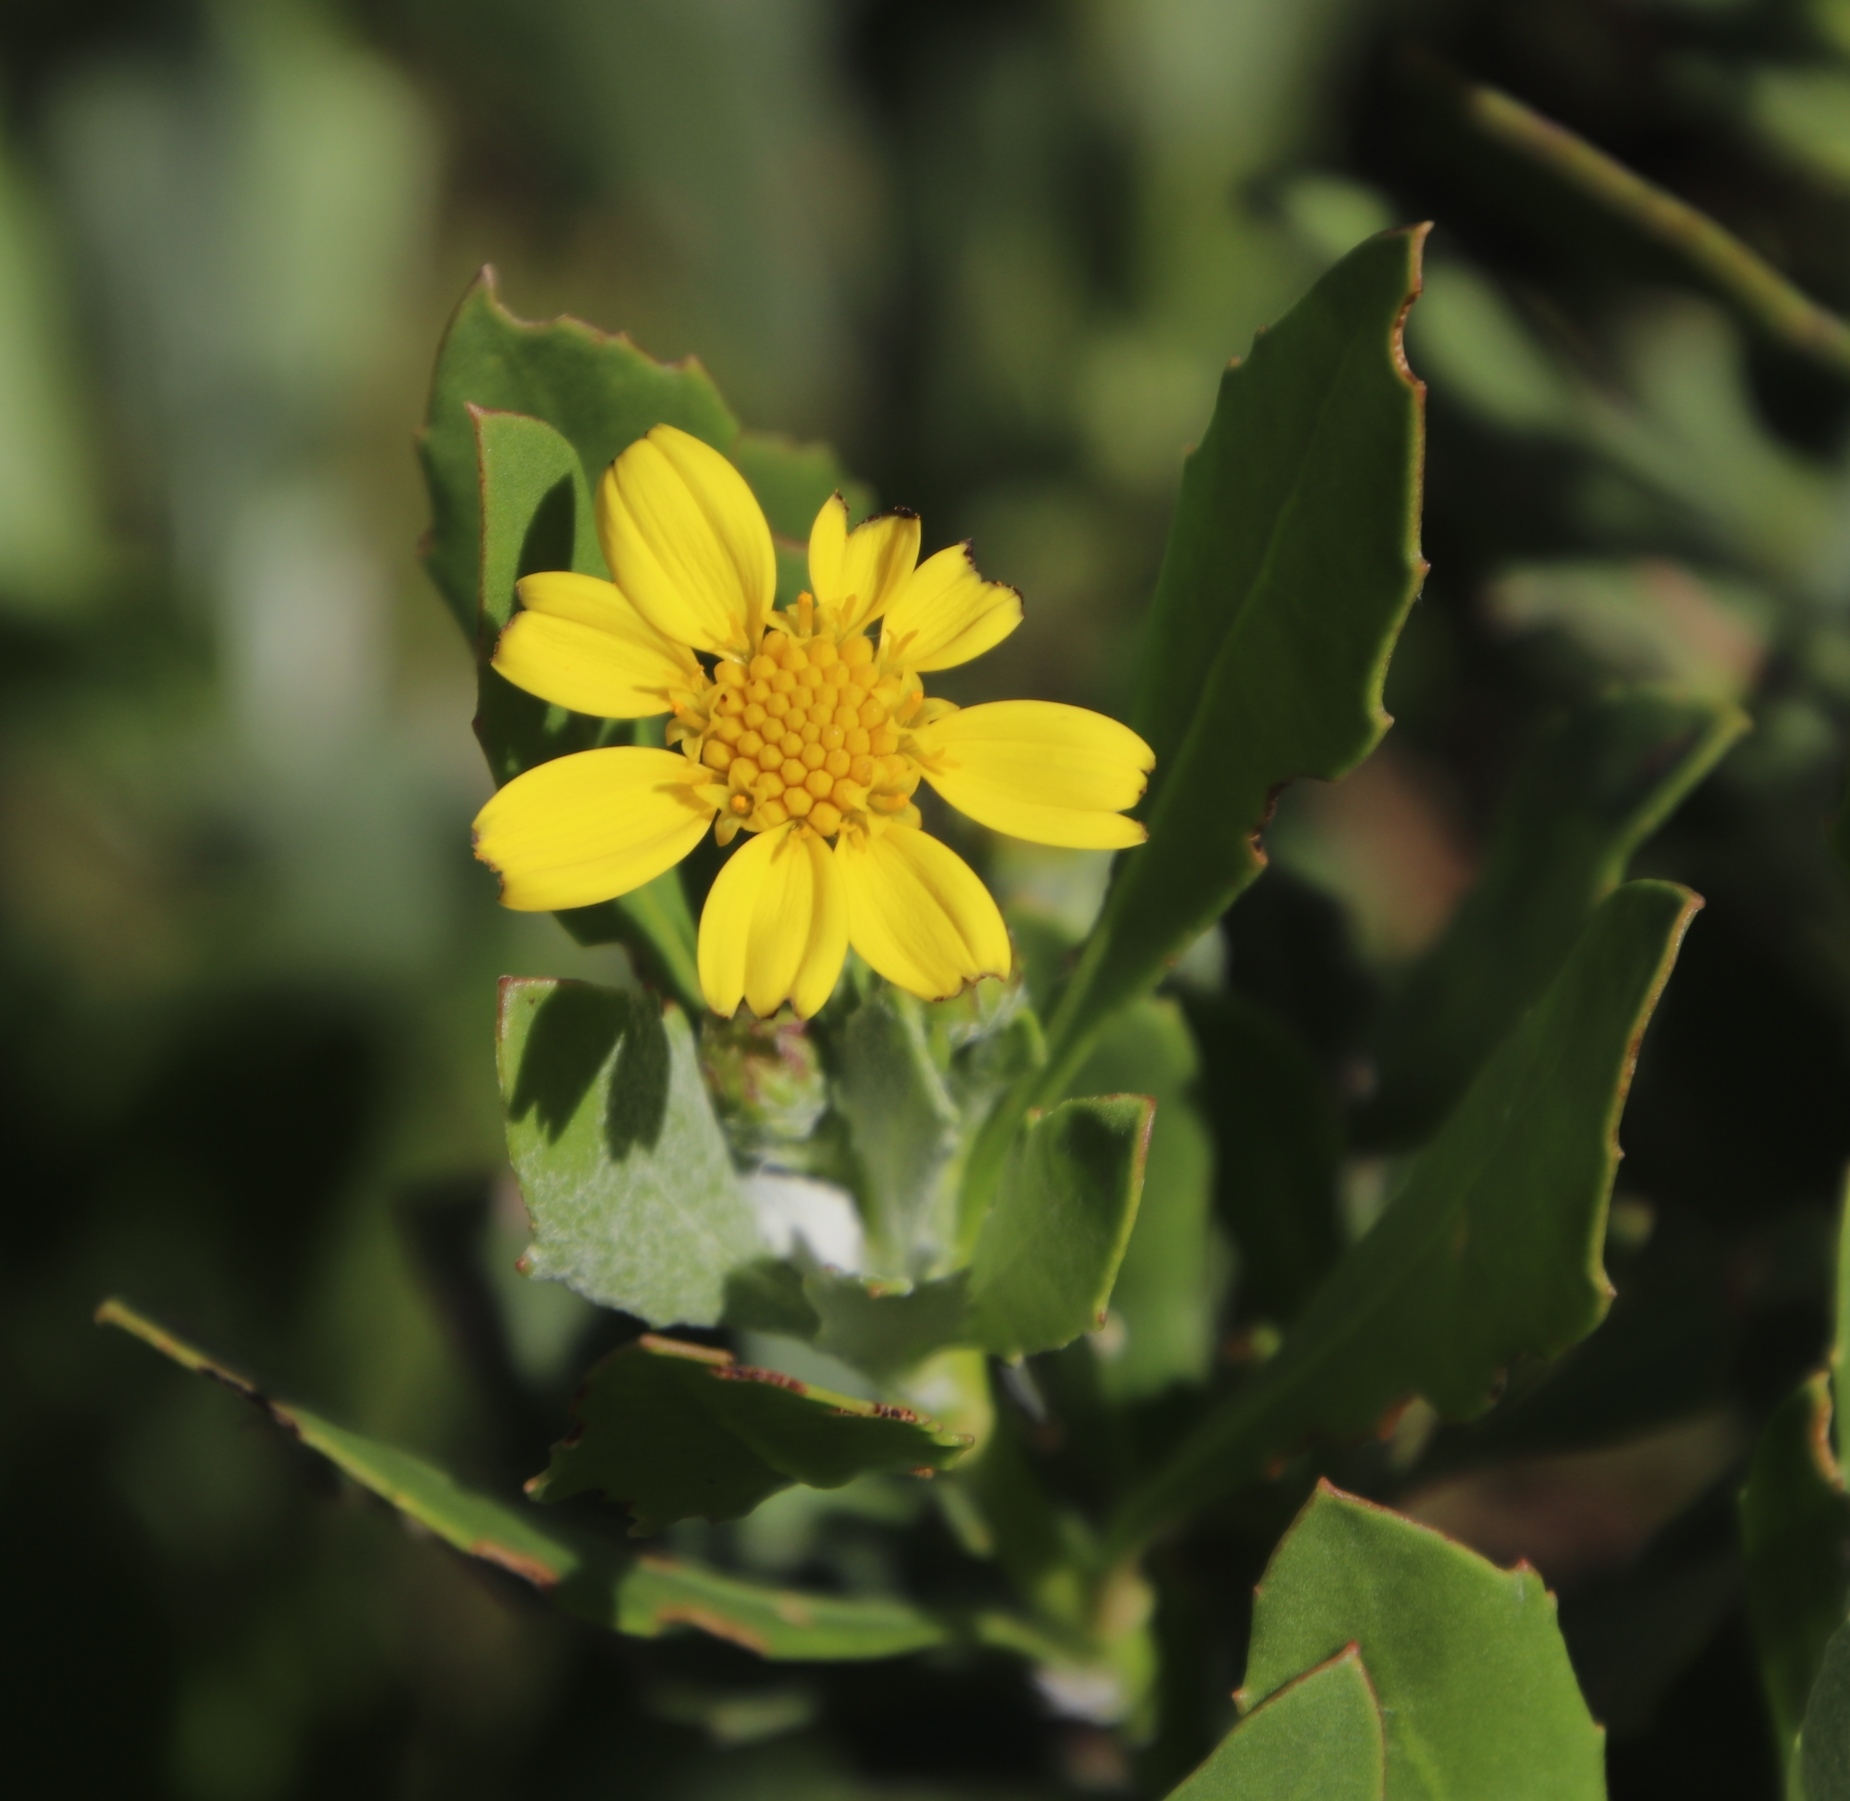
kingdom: Plantae
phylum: Tracheophyta
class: Magnoliopsida
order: Asterales
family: Asteraceae
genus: Osteospermum
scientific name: Osteospermum moniliferum
